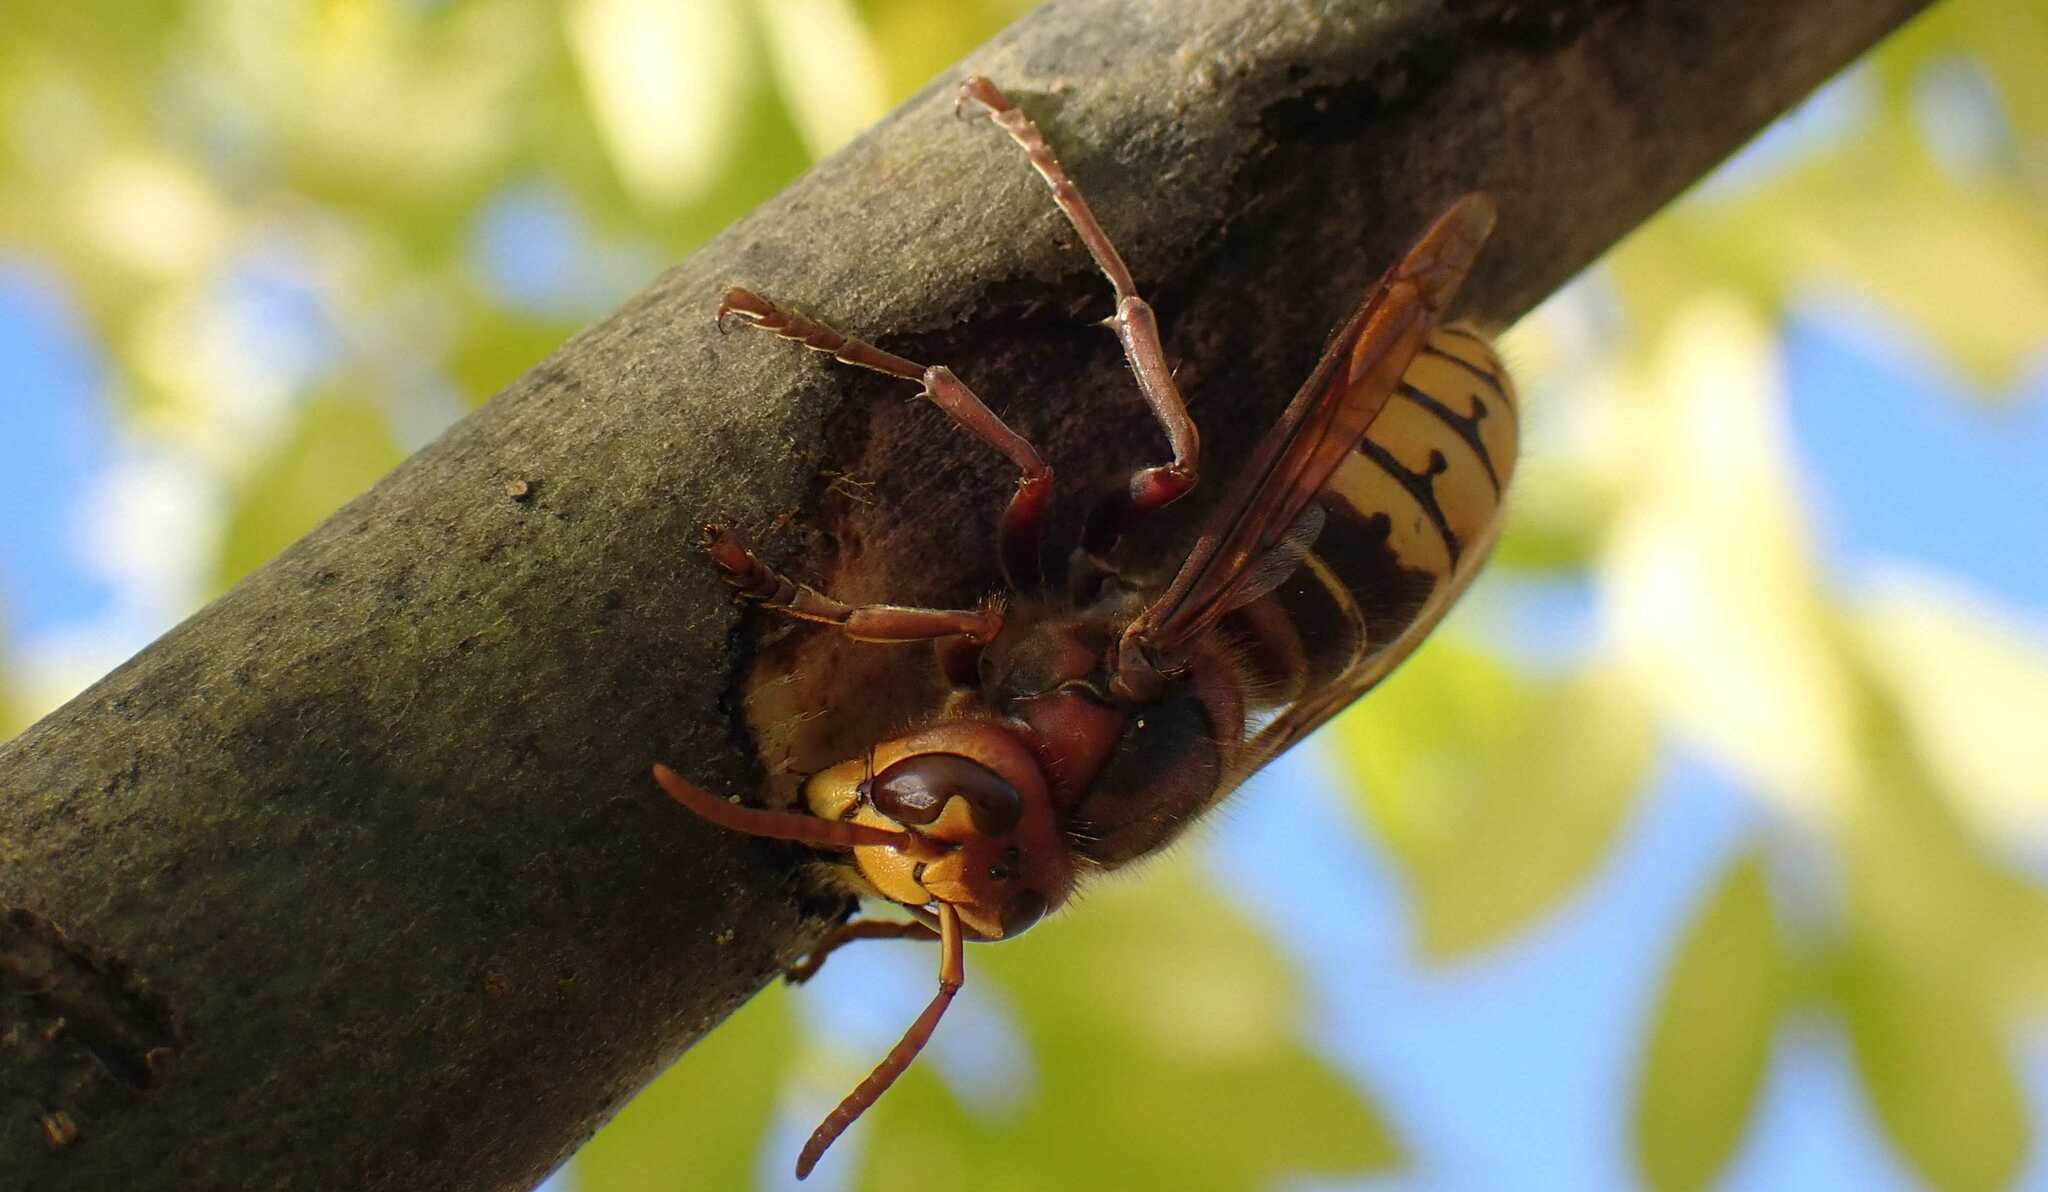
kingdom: Animalia
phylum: Arthropoda
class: Insecta
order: Hymenoptera
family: Vespidae
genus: Vespa
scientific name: Vespa crabro
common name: Hornet
